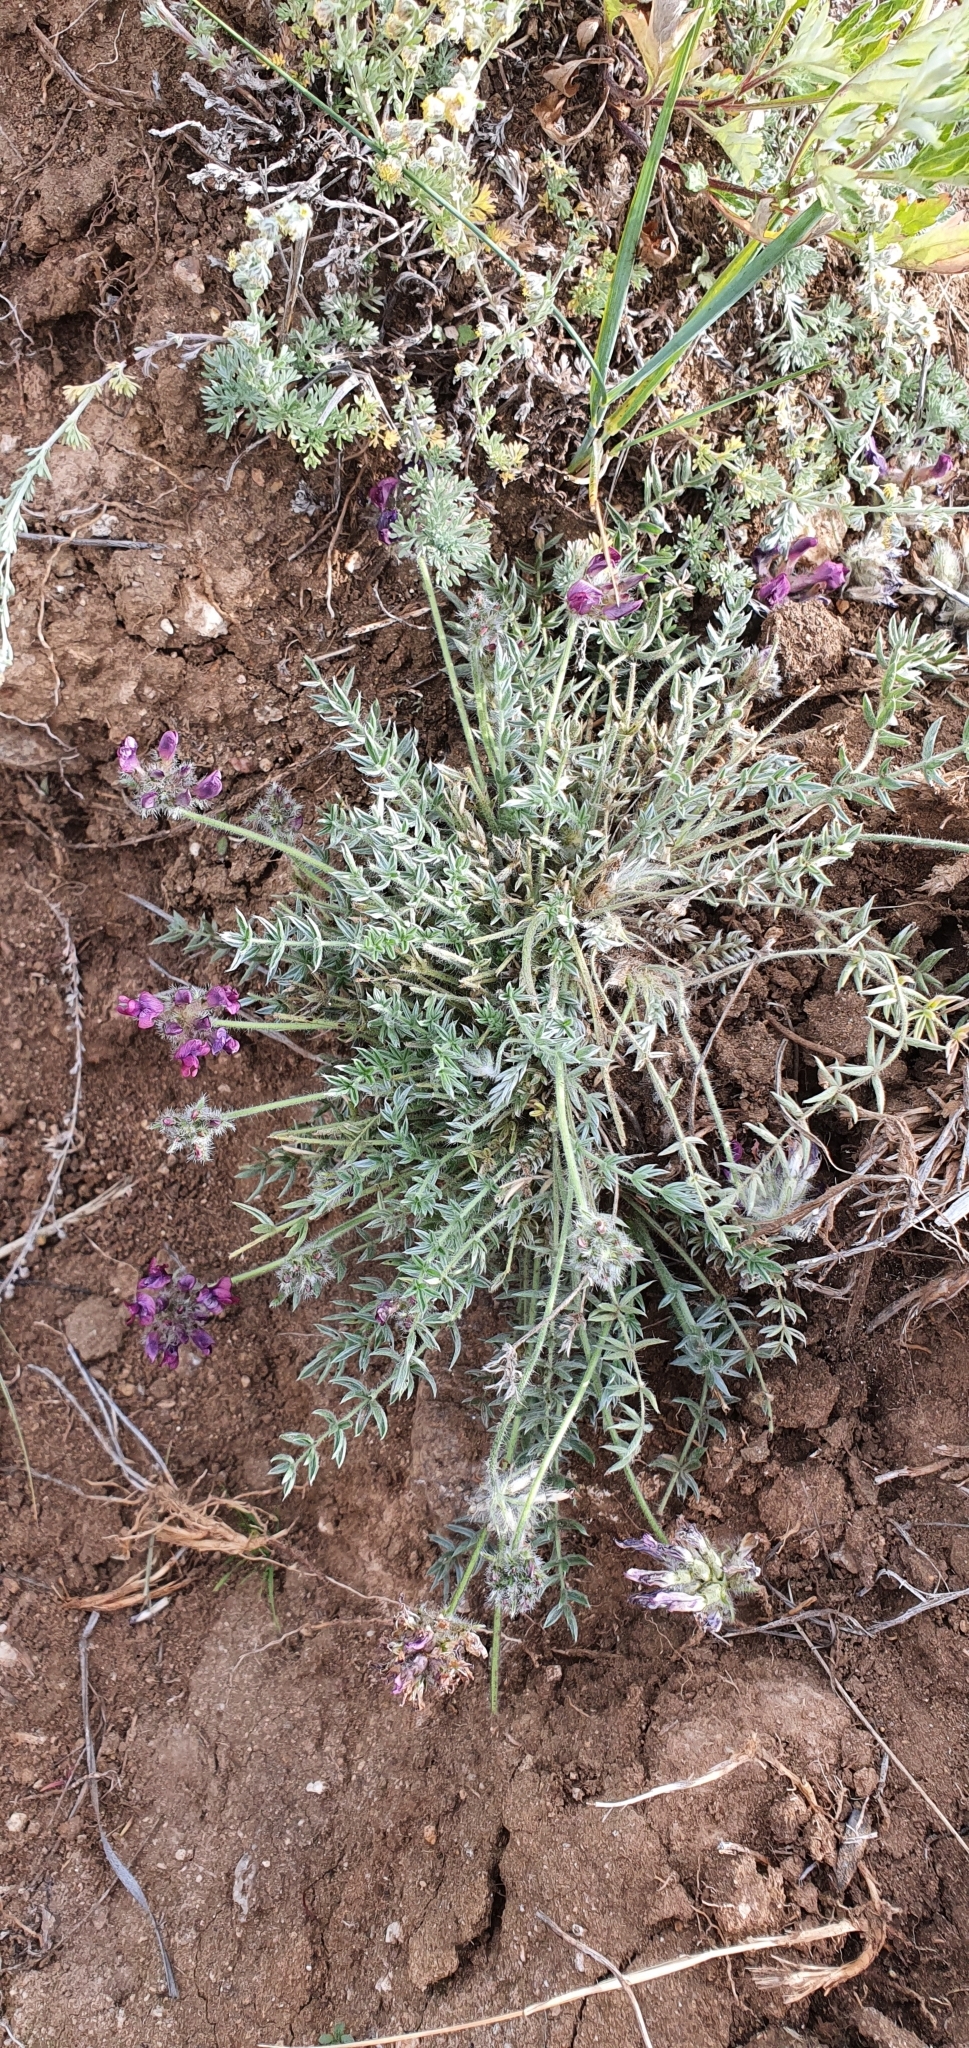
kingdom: Plantae
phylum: Tracheophyta
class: Magnoliopsida
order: Fabales
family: Fabaceae
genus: Oxytropis
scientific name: Oxytropis turczaninovii
